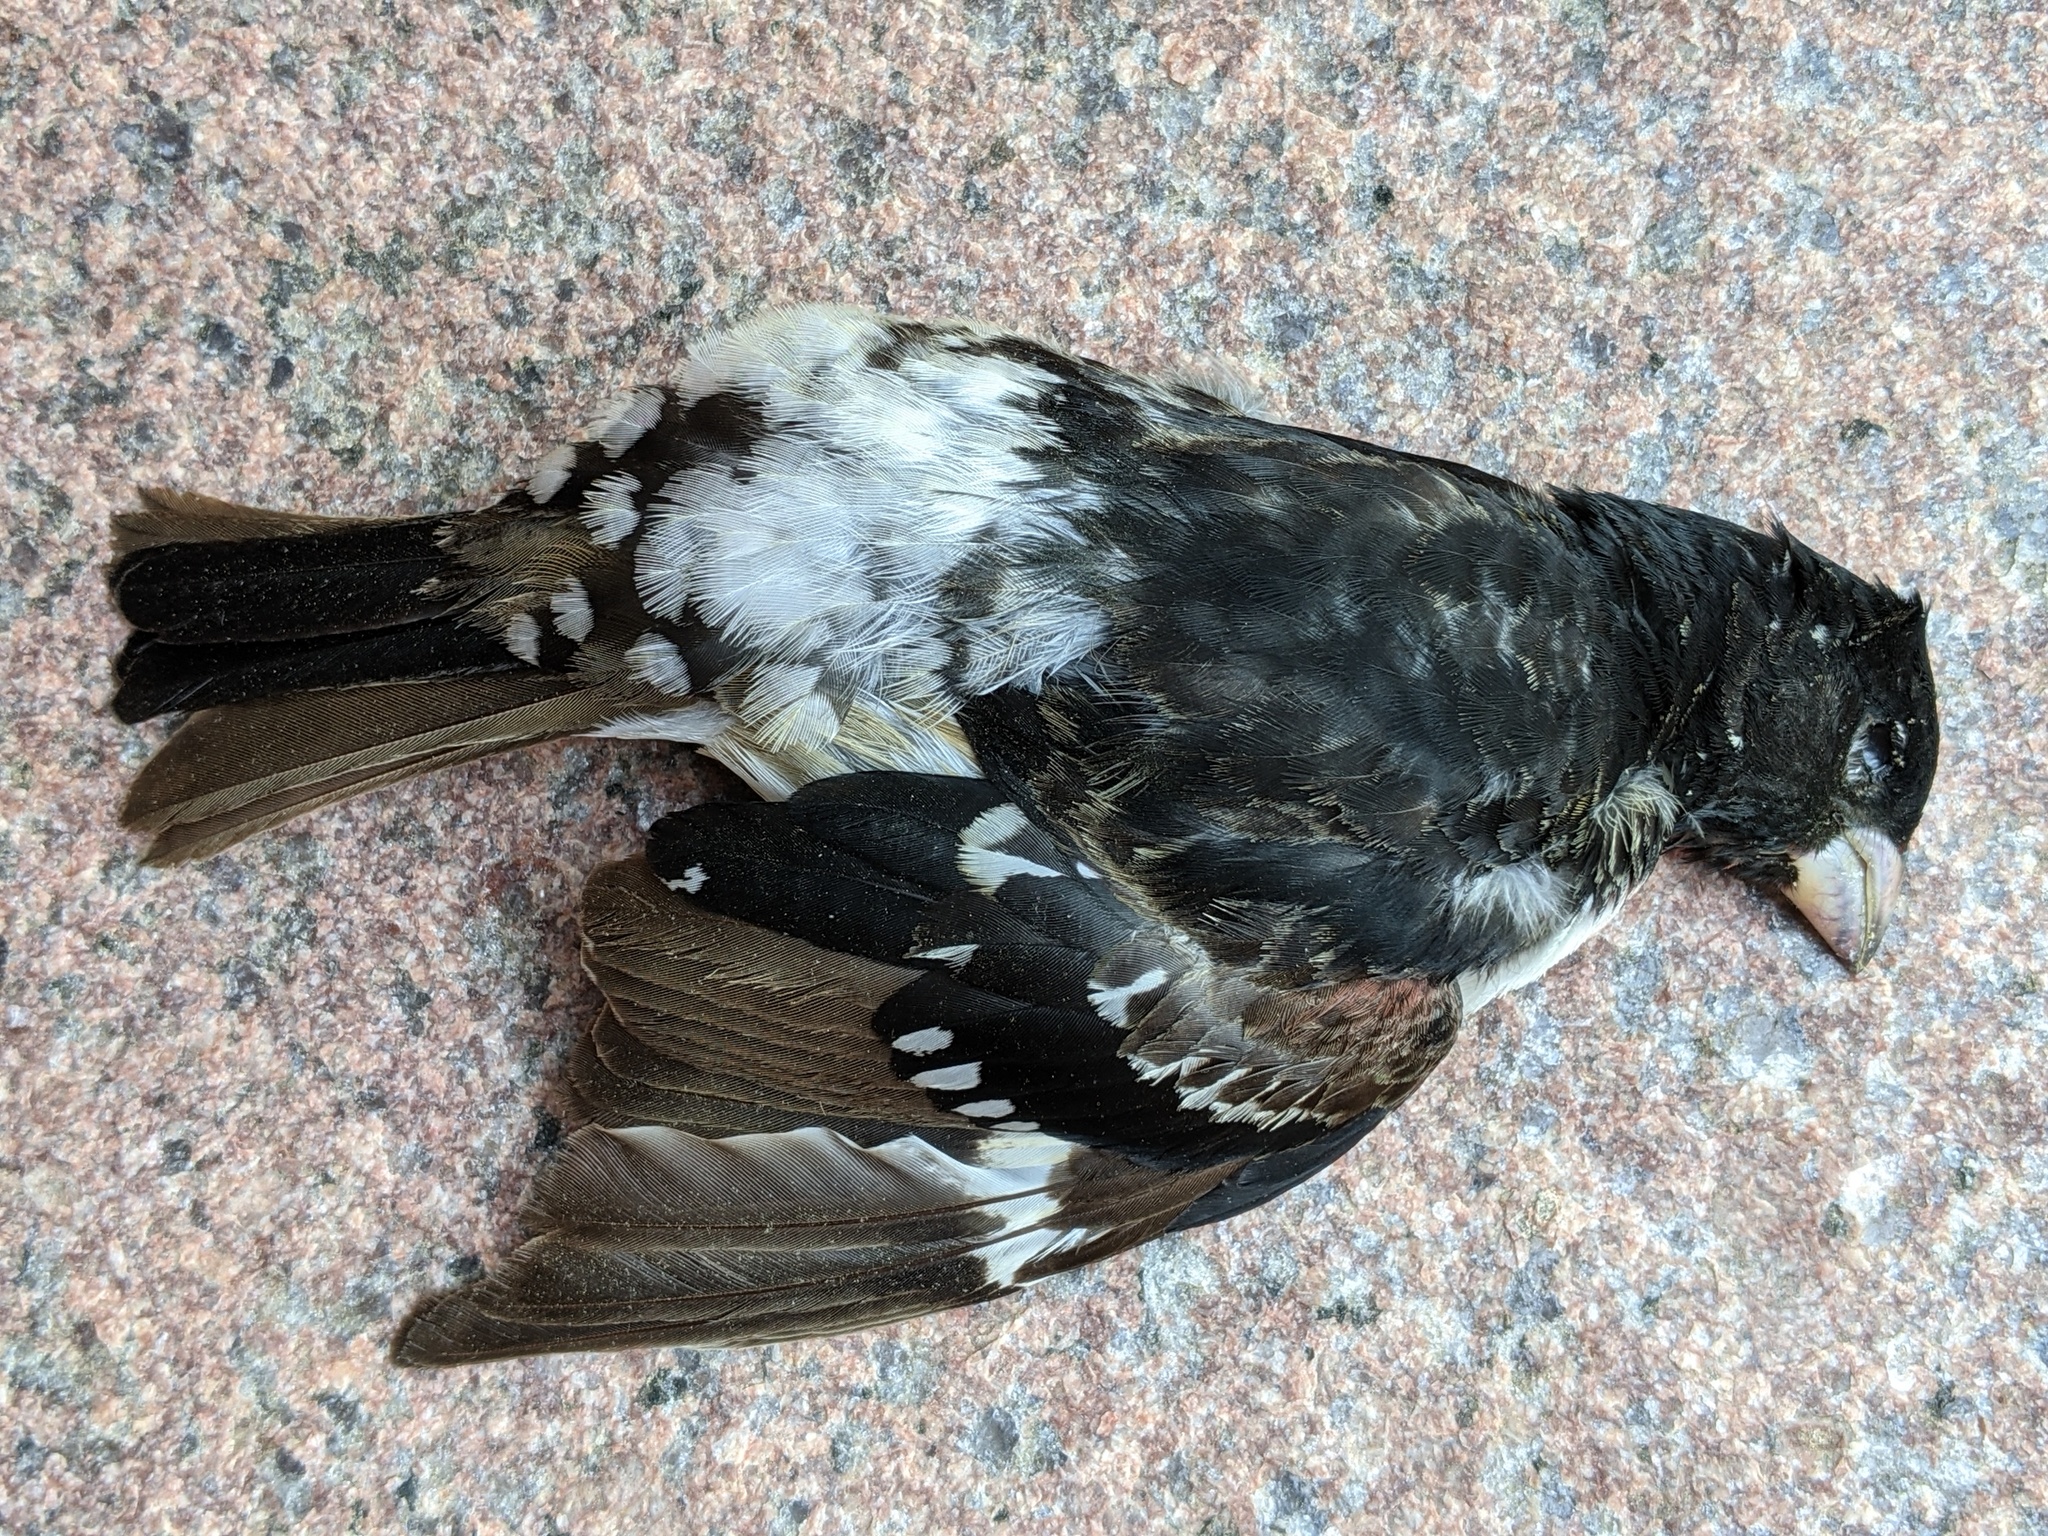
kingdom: Animalia
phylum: Chordata
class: Aves
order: Passeriformes
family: Cardinalidae
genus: Pheucticus
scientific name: Pheucticus ludovicianus
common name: Rose-breasted grosbeak
